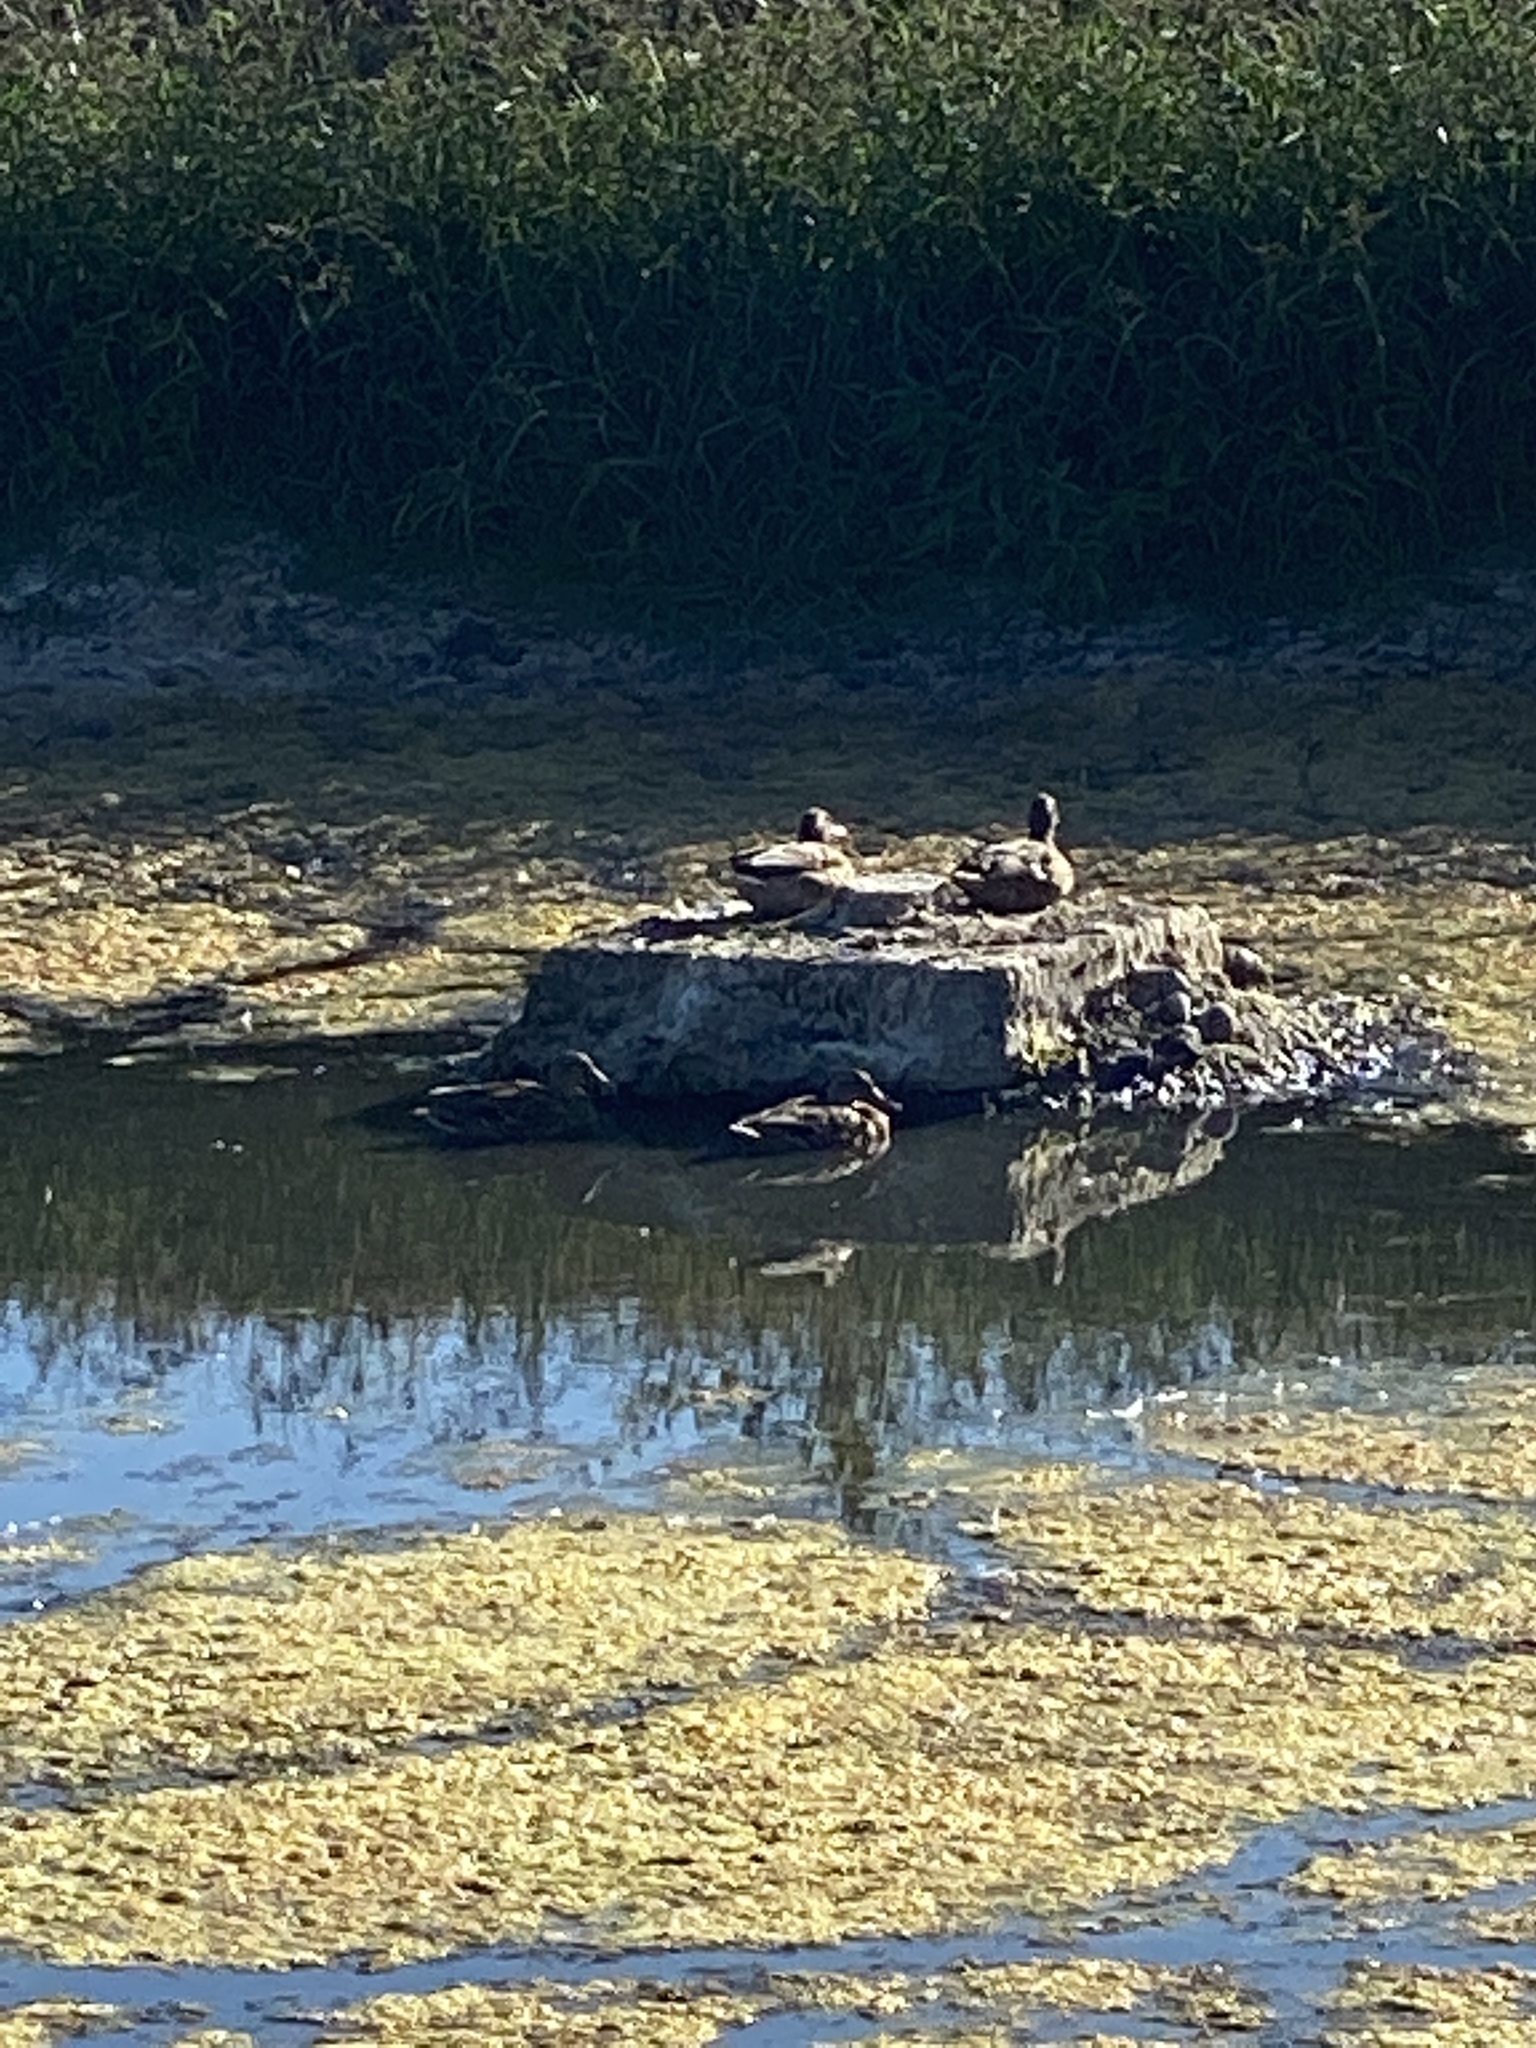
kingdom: Animalia
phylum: Chordata
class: Aves
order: Anseriformes
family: Anatidae
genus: Anas
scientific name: Anas platyrhynchos
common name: Mallard
